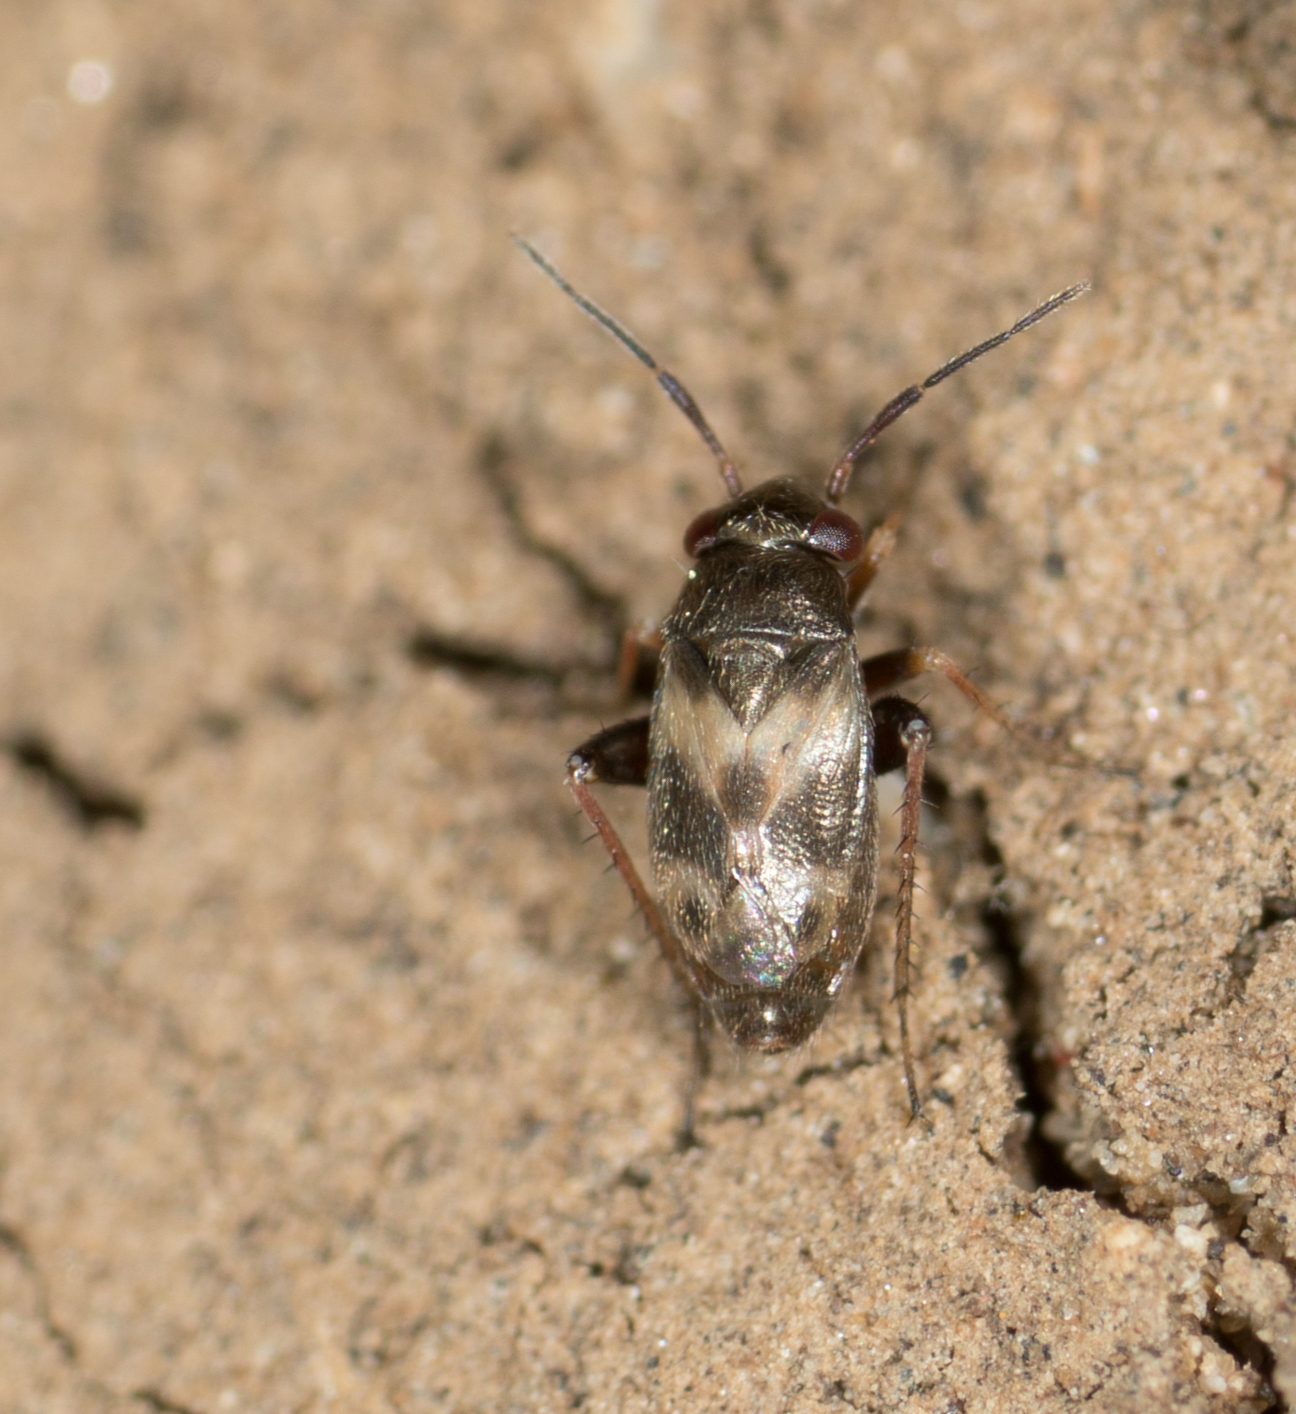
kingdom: Animalia
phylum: Arthropoda
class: Insecta
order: Hemiptera
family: Miridae
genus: Spanagonicus
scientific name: Spanagonicus albofasciatus
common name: Whitemarked fleahopper
